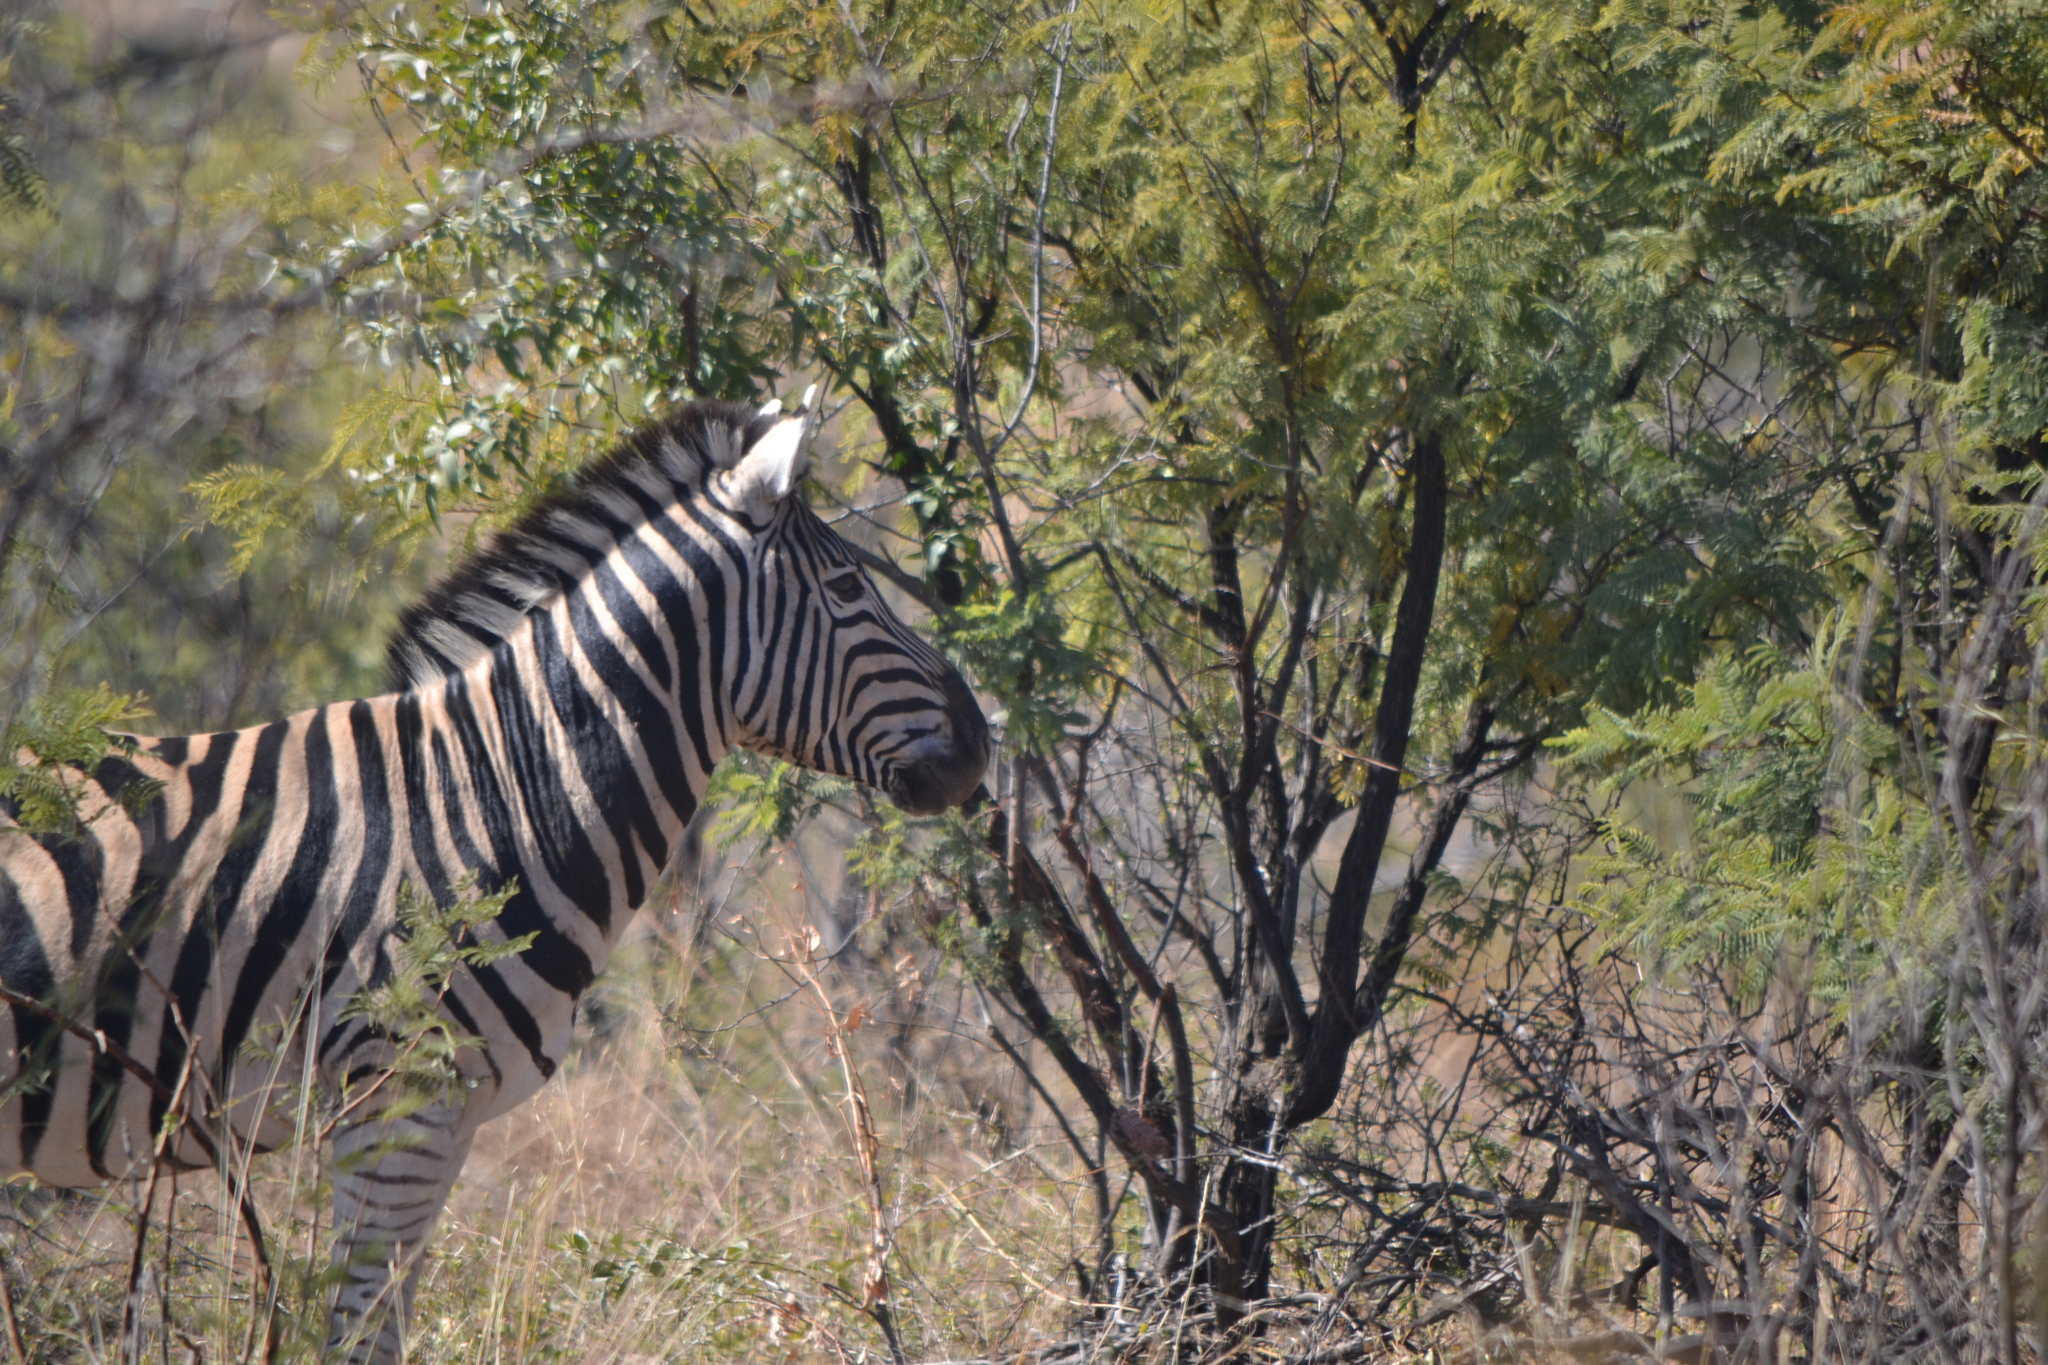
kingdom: Animalia
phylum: Chordata
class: Mammalia
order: Perissodactyla
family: Equidae
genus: Equus
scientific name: Equus quagga
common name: Plains zebra
